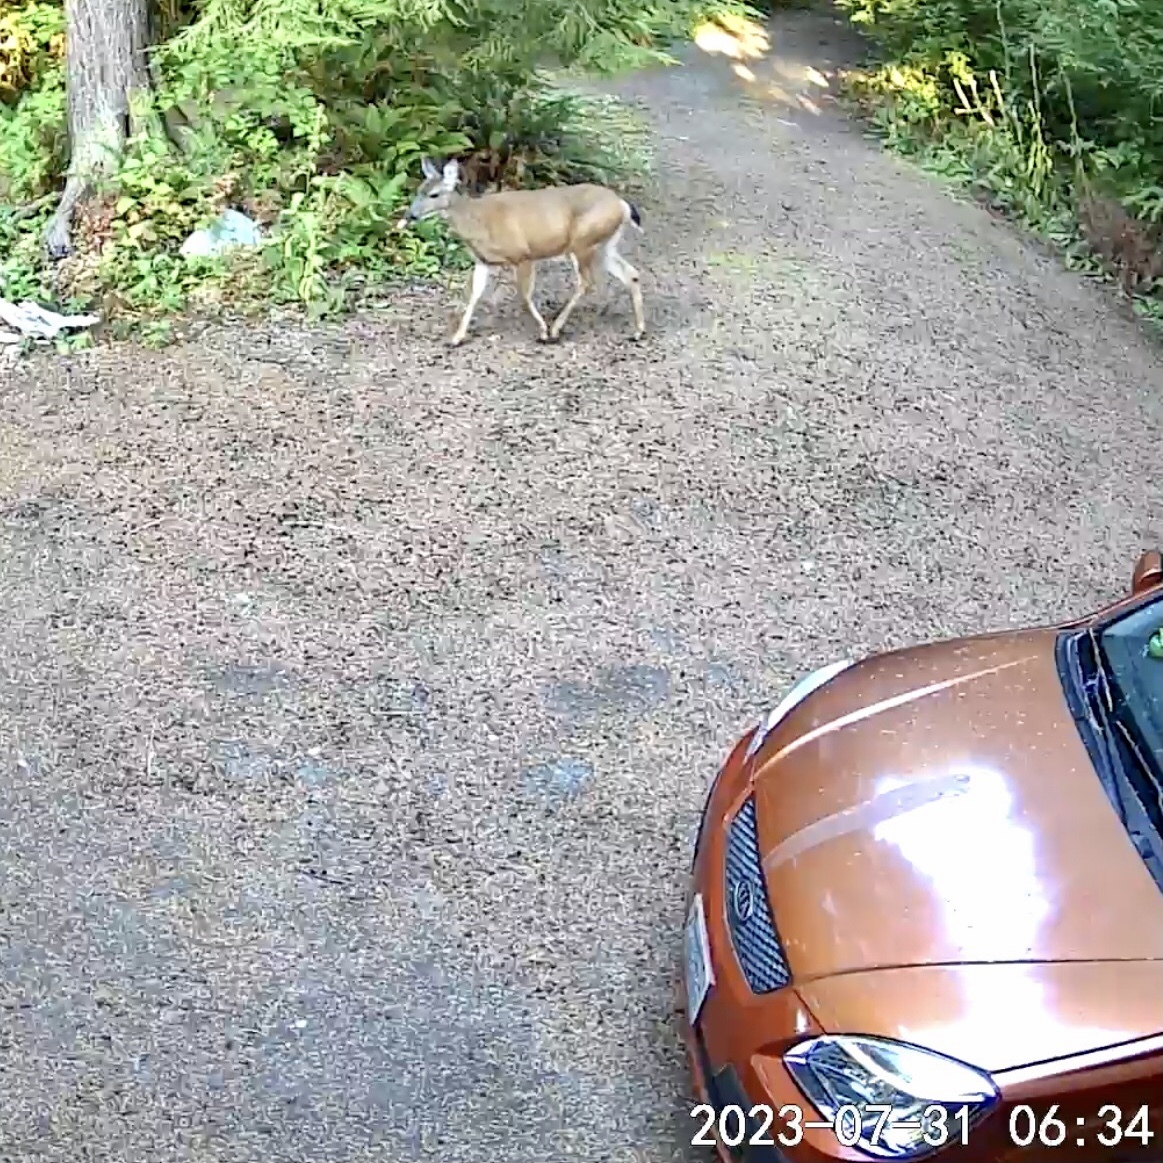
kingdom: Animalia
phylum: Chordata
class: Mammalia
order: Artiodactyla
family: Cervidae
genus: Odocoileus
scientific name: Odocoileus hemionus
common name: Mule deer
